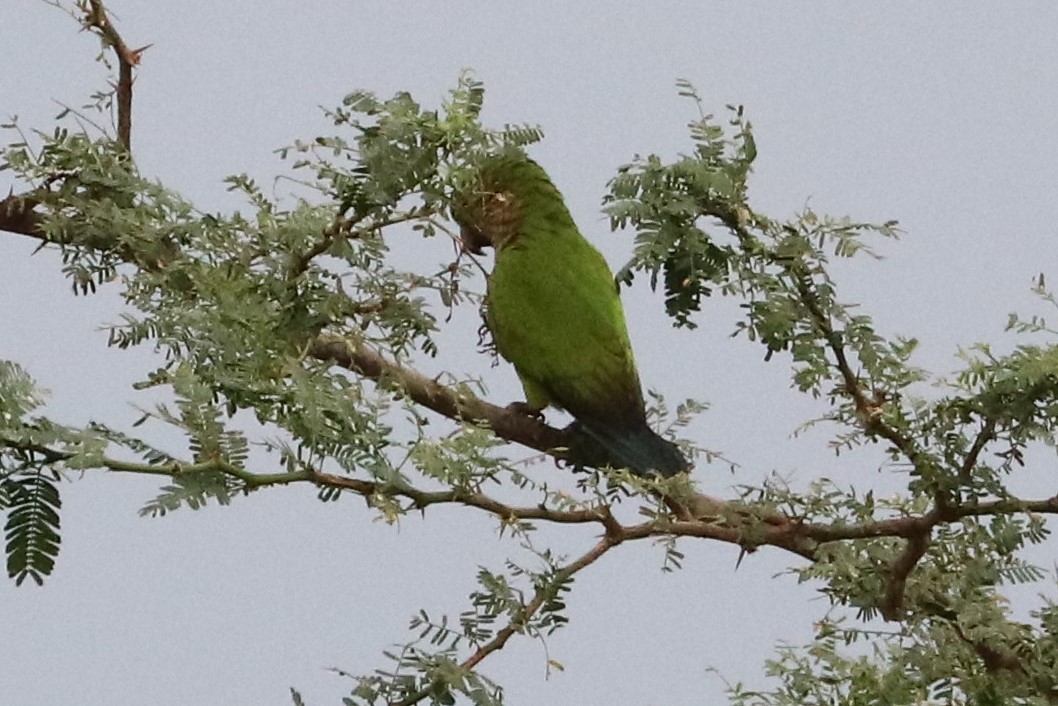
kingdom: Animalia
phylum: Chordata
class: Aves
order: Psittaciformes
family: Psittacidae
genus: Aratinga
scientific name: Aratinga pertinax
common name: Brown-throated parakeet
